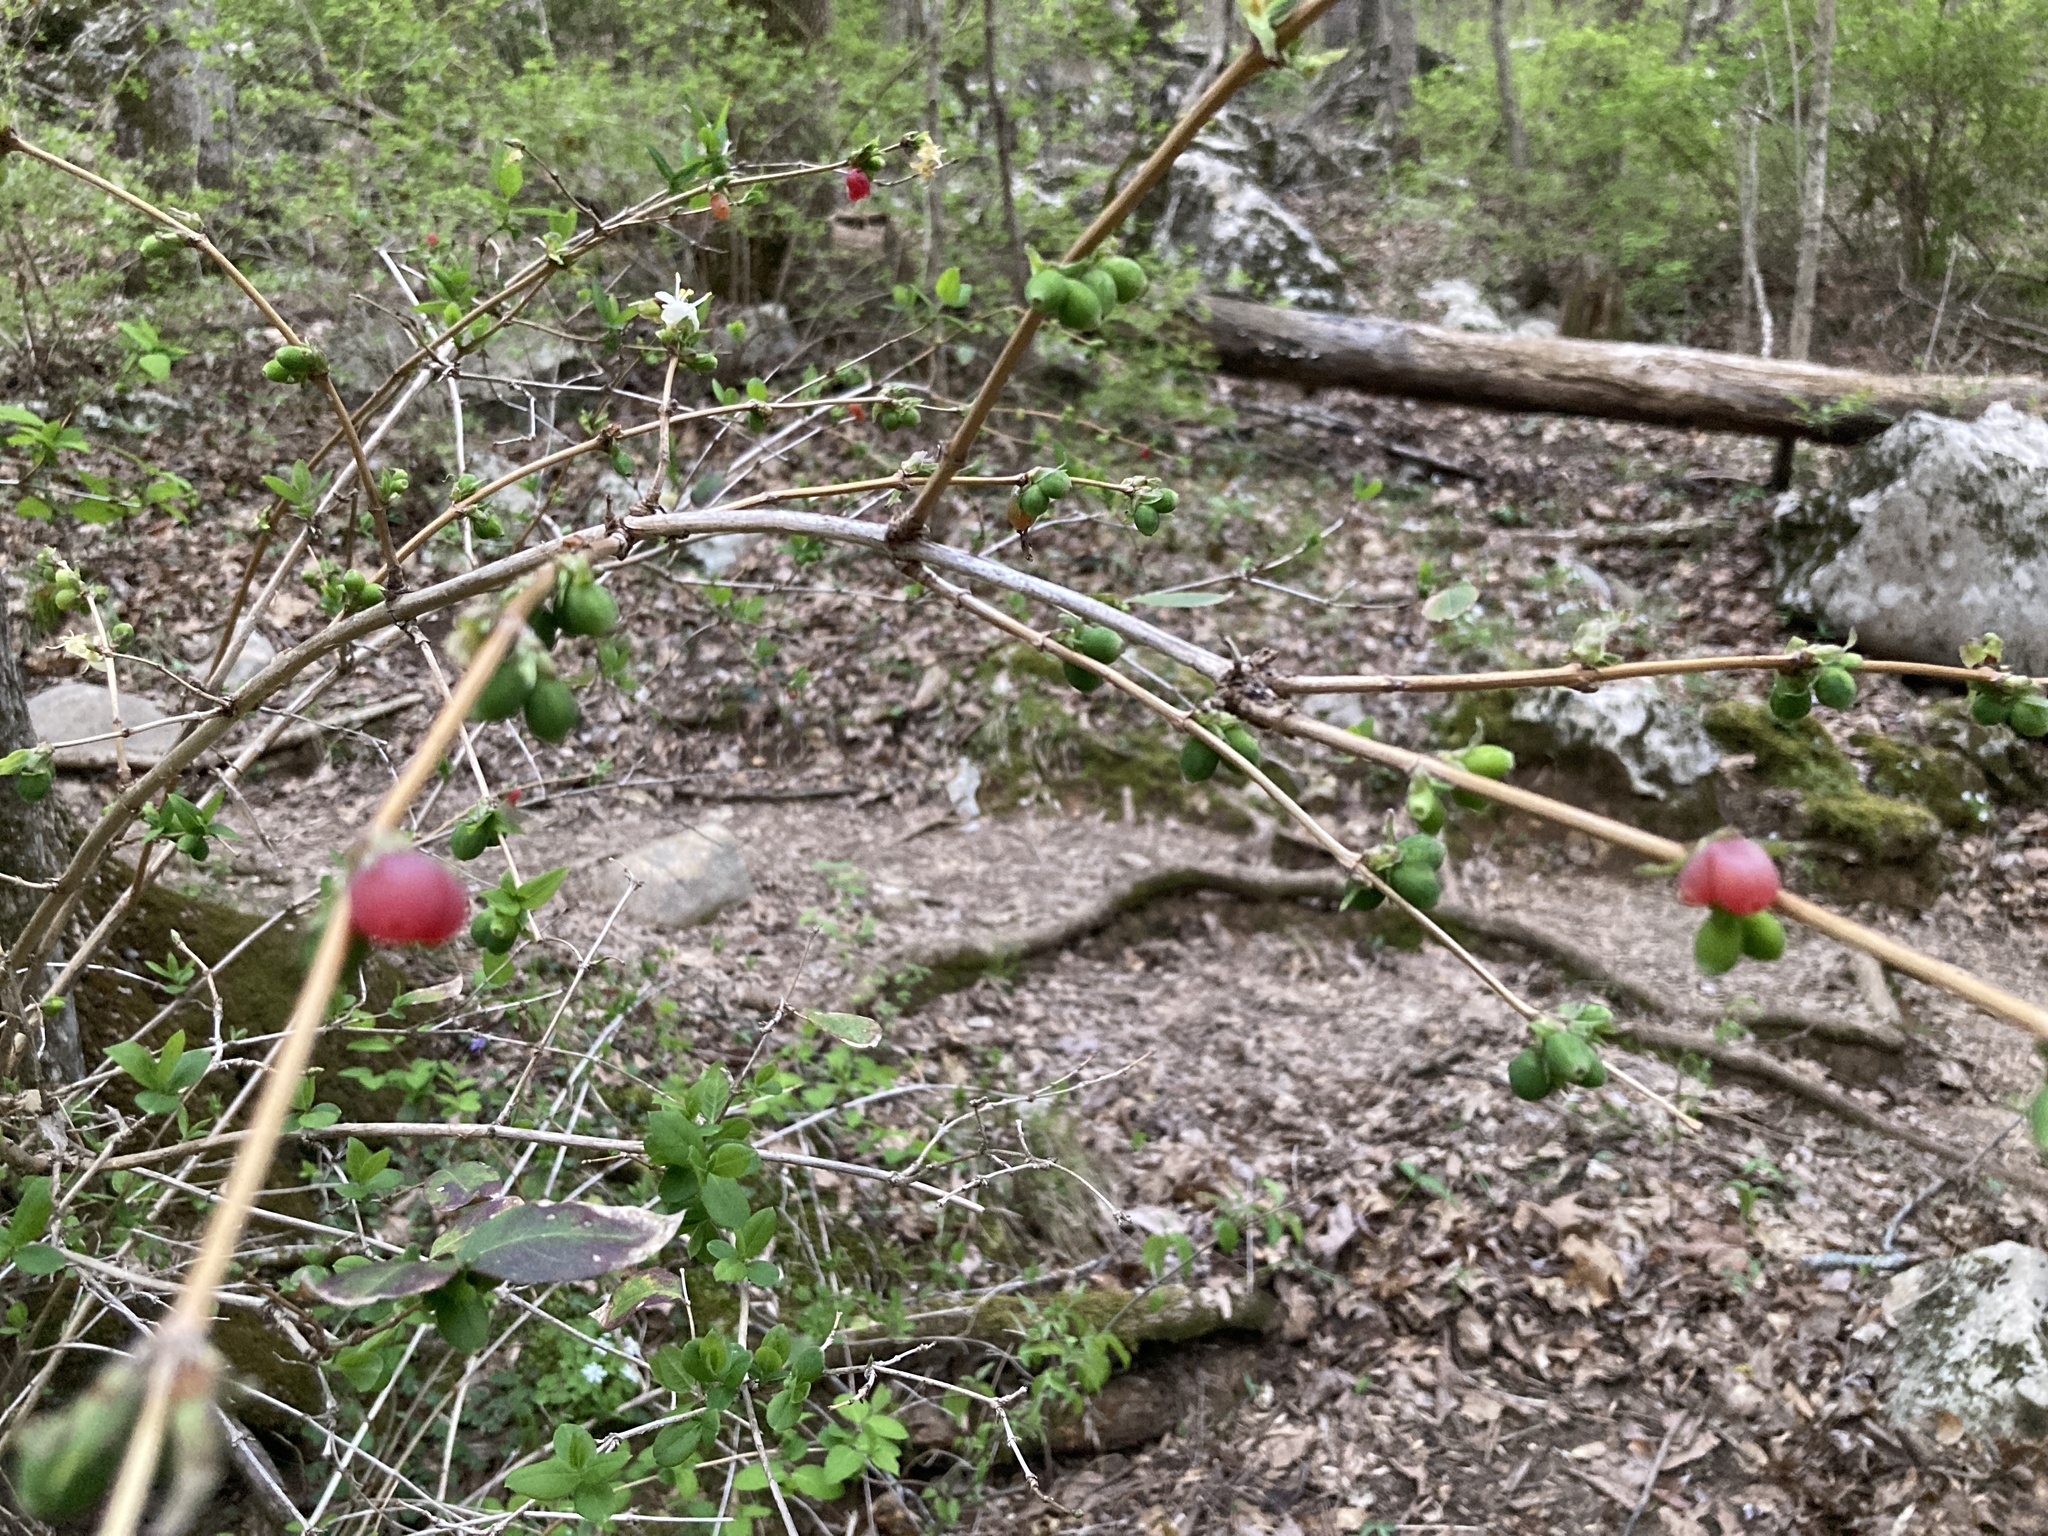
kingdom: Plantae
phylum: Tracheophyta
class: Magnoliopsida
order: Dipsacales
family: Caprifoliaceae
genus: Lonicera
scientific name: Lonicera fragrantissima
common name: Fragrant honeysuckle
